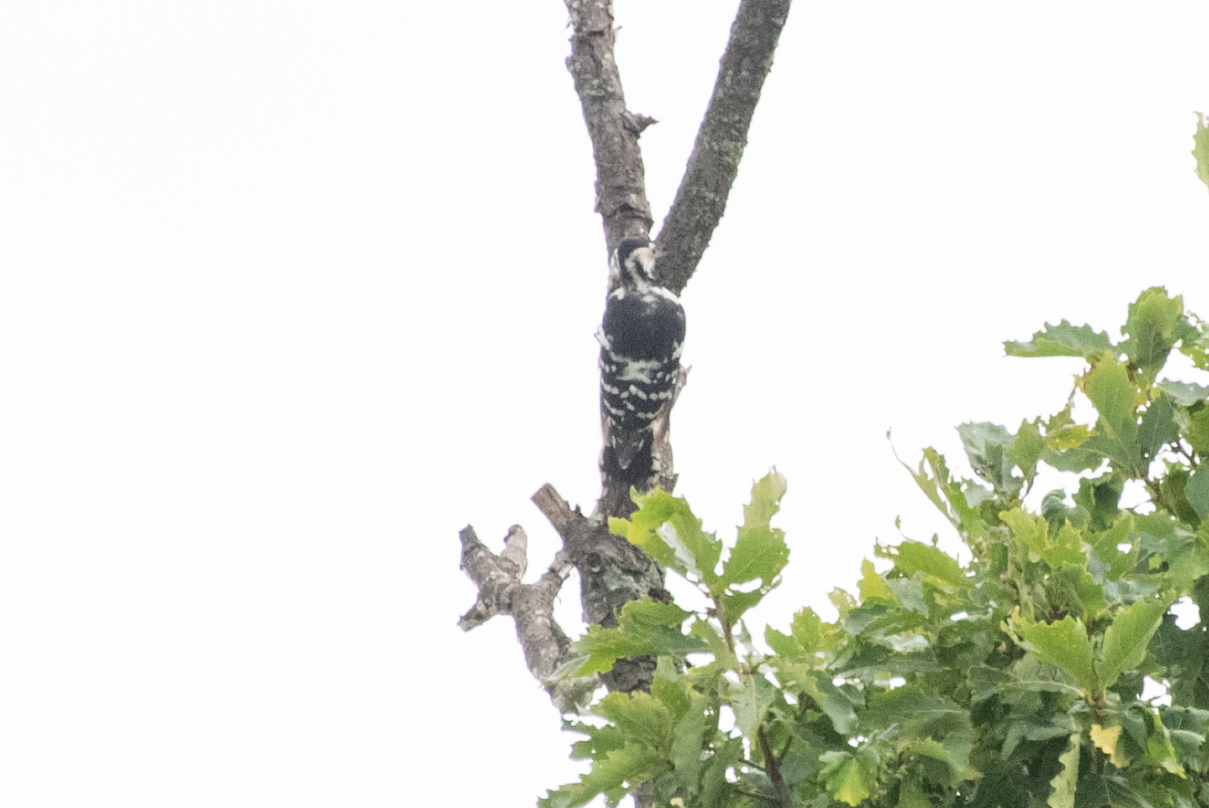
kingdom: Animalia
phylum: Chordata
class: Aves
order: Piciformes
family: Picidae
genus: Dendrocopos
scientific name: Dendrocopos leucotos
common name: White-backed woodpecker
